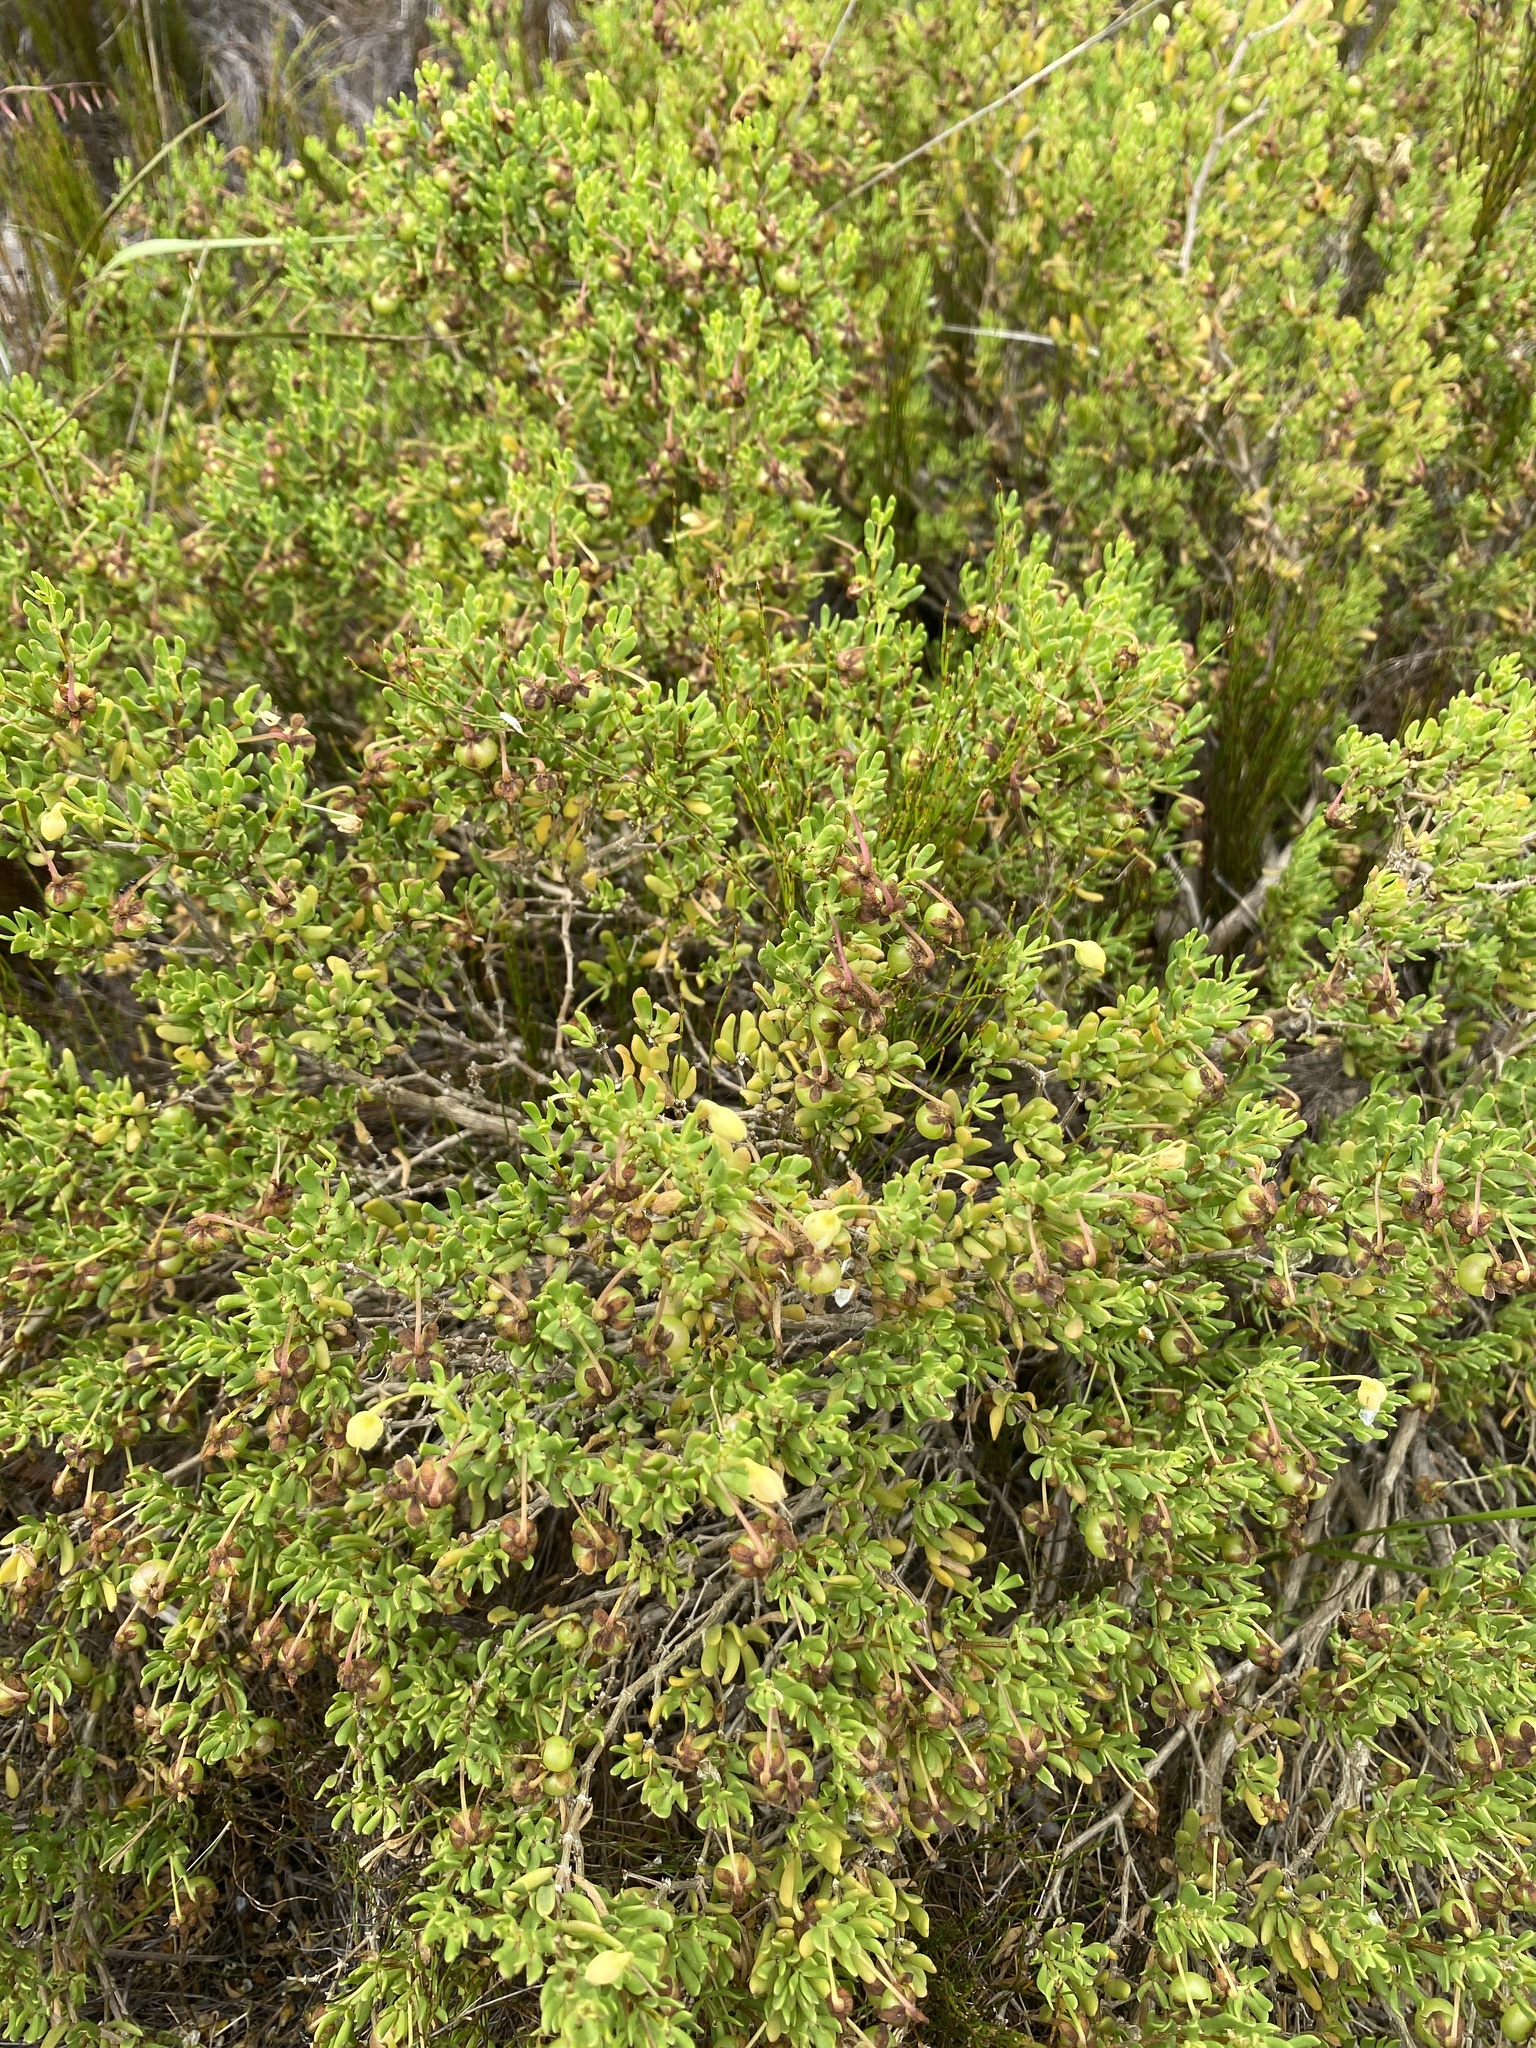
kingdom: Plantae
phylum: Tracheophyta
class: Magnoliopsida
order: Zygophyllales
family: Zygophyllaceae
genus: Roepera
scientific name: Roepera flexuosa
